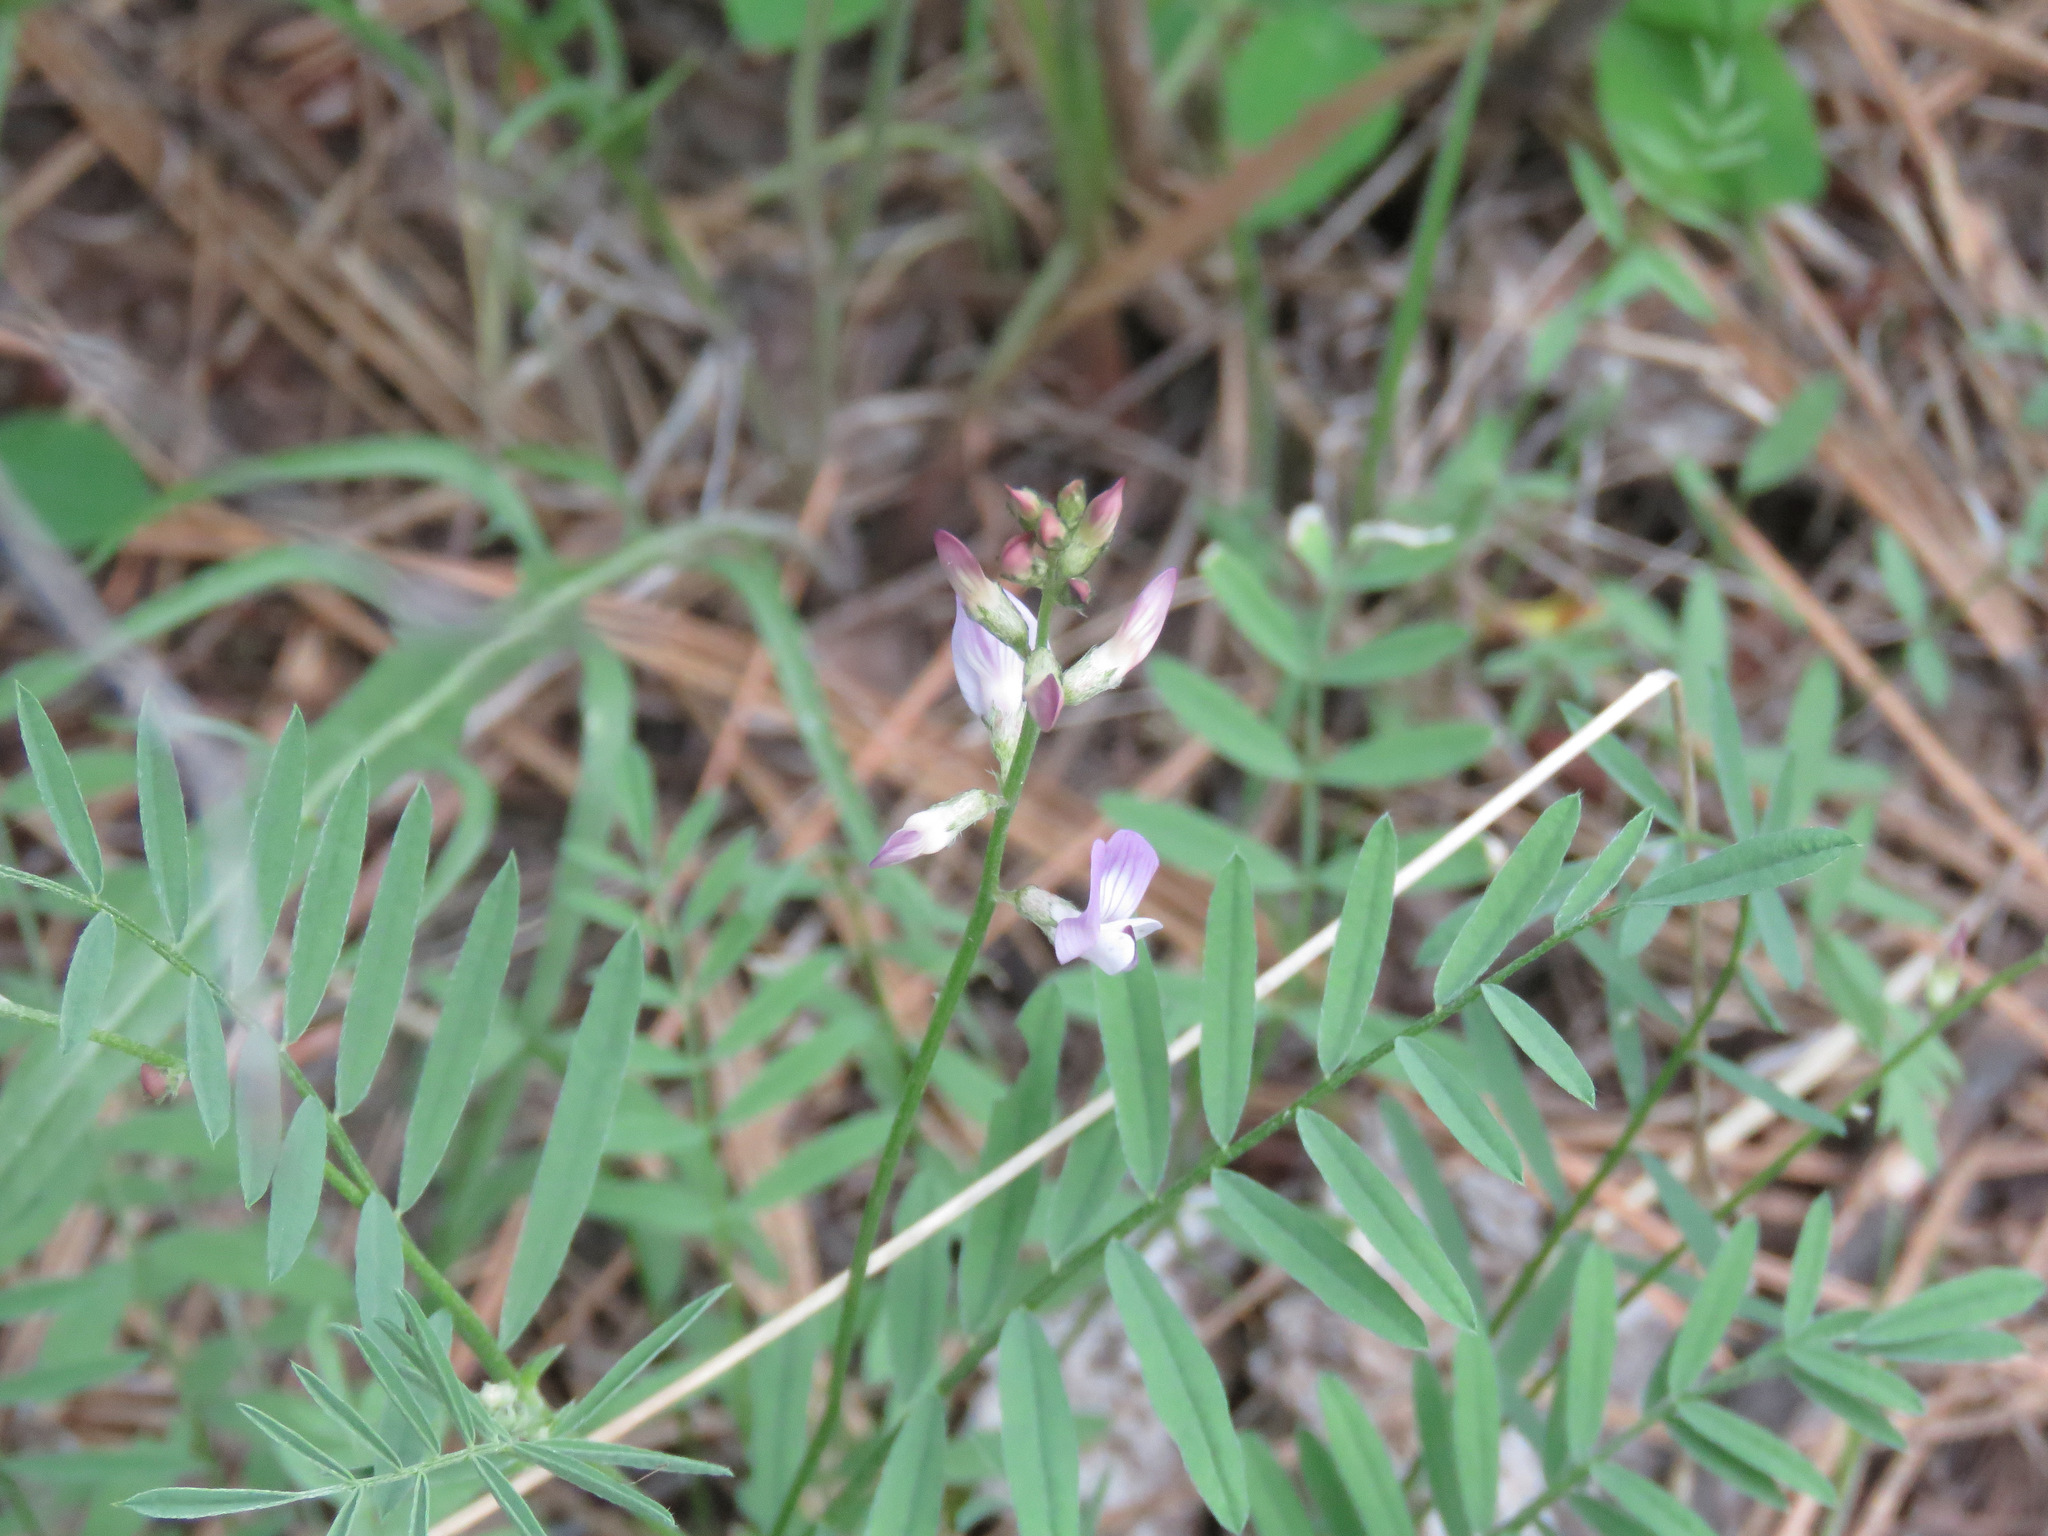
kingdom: Plantae
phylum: Tracheophyta
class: Magnoliopsida
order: Fabales
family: Fabaceae
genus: Astragalus
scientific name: Astragalus miser
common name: Timber milkvetch
